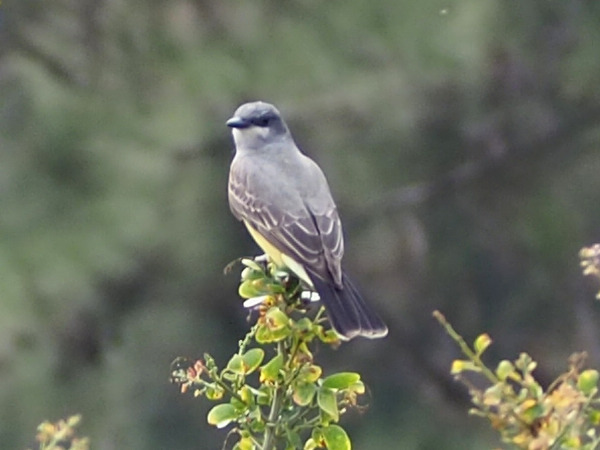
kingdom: Animalia
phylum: Chordata
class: Aves
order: Passeriformes
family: Tyrannidae
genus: Tyrannus
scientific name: Tyrannus vociferans
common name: Cassin's kingbird
